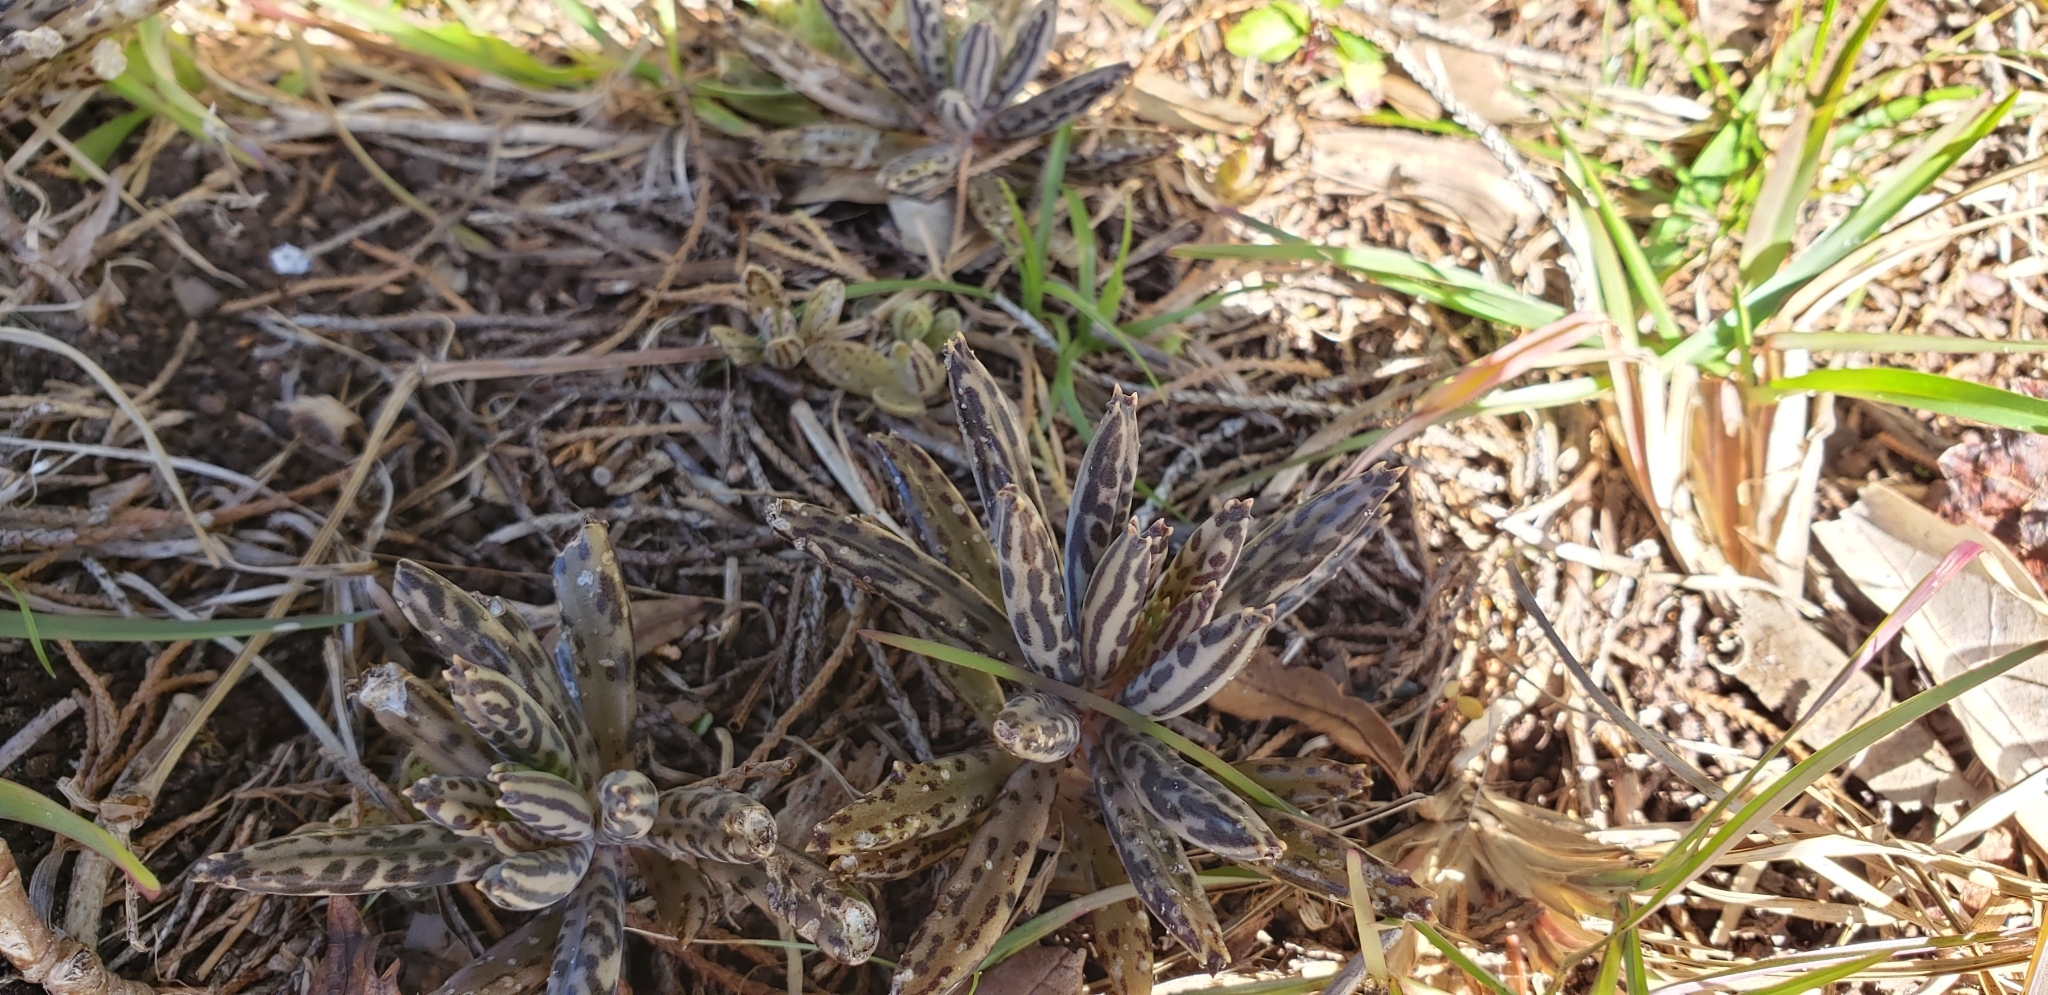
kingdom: Plantae
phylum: Tracheophyta
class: Magnoliopsida
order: Saxifragales
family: Crassulaceae
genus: Kalanchoe
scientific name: Kalanchoe delagoensis
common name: Chandelier plant
